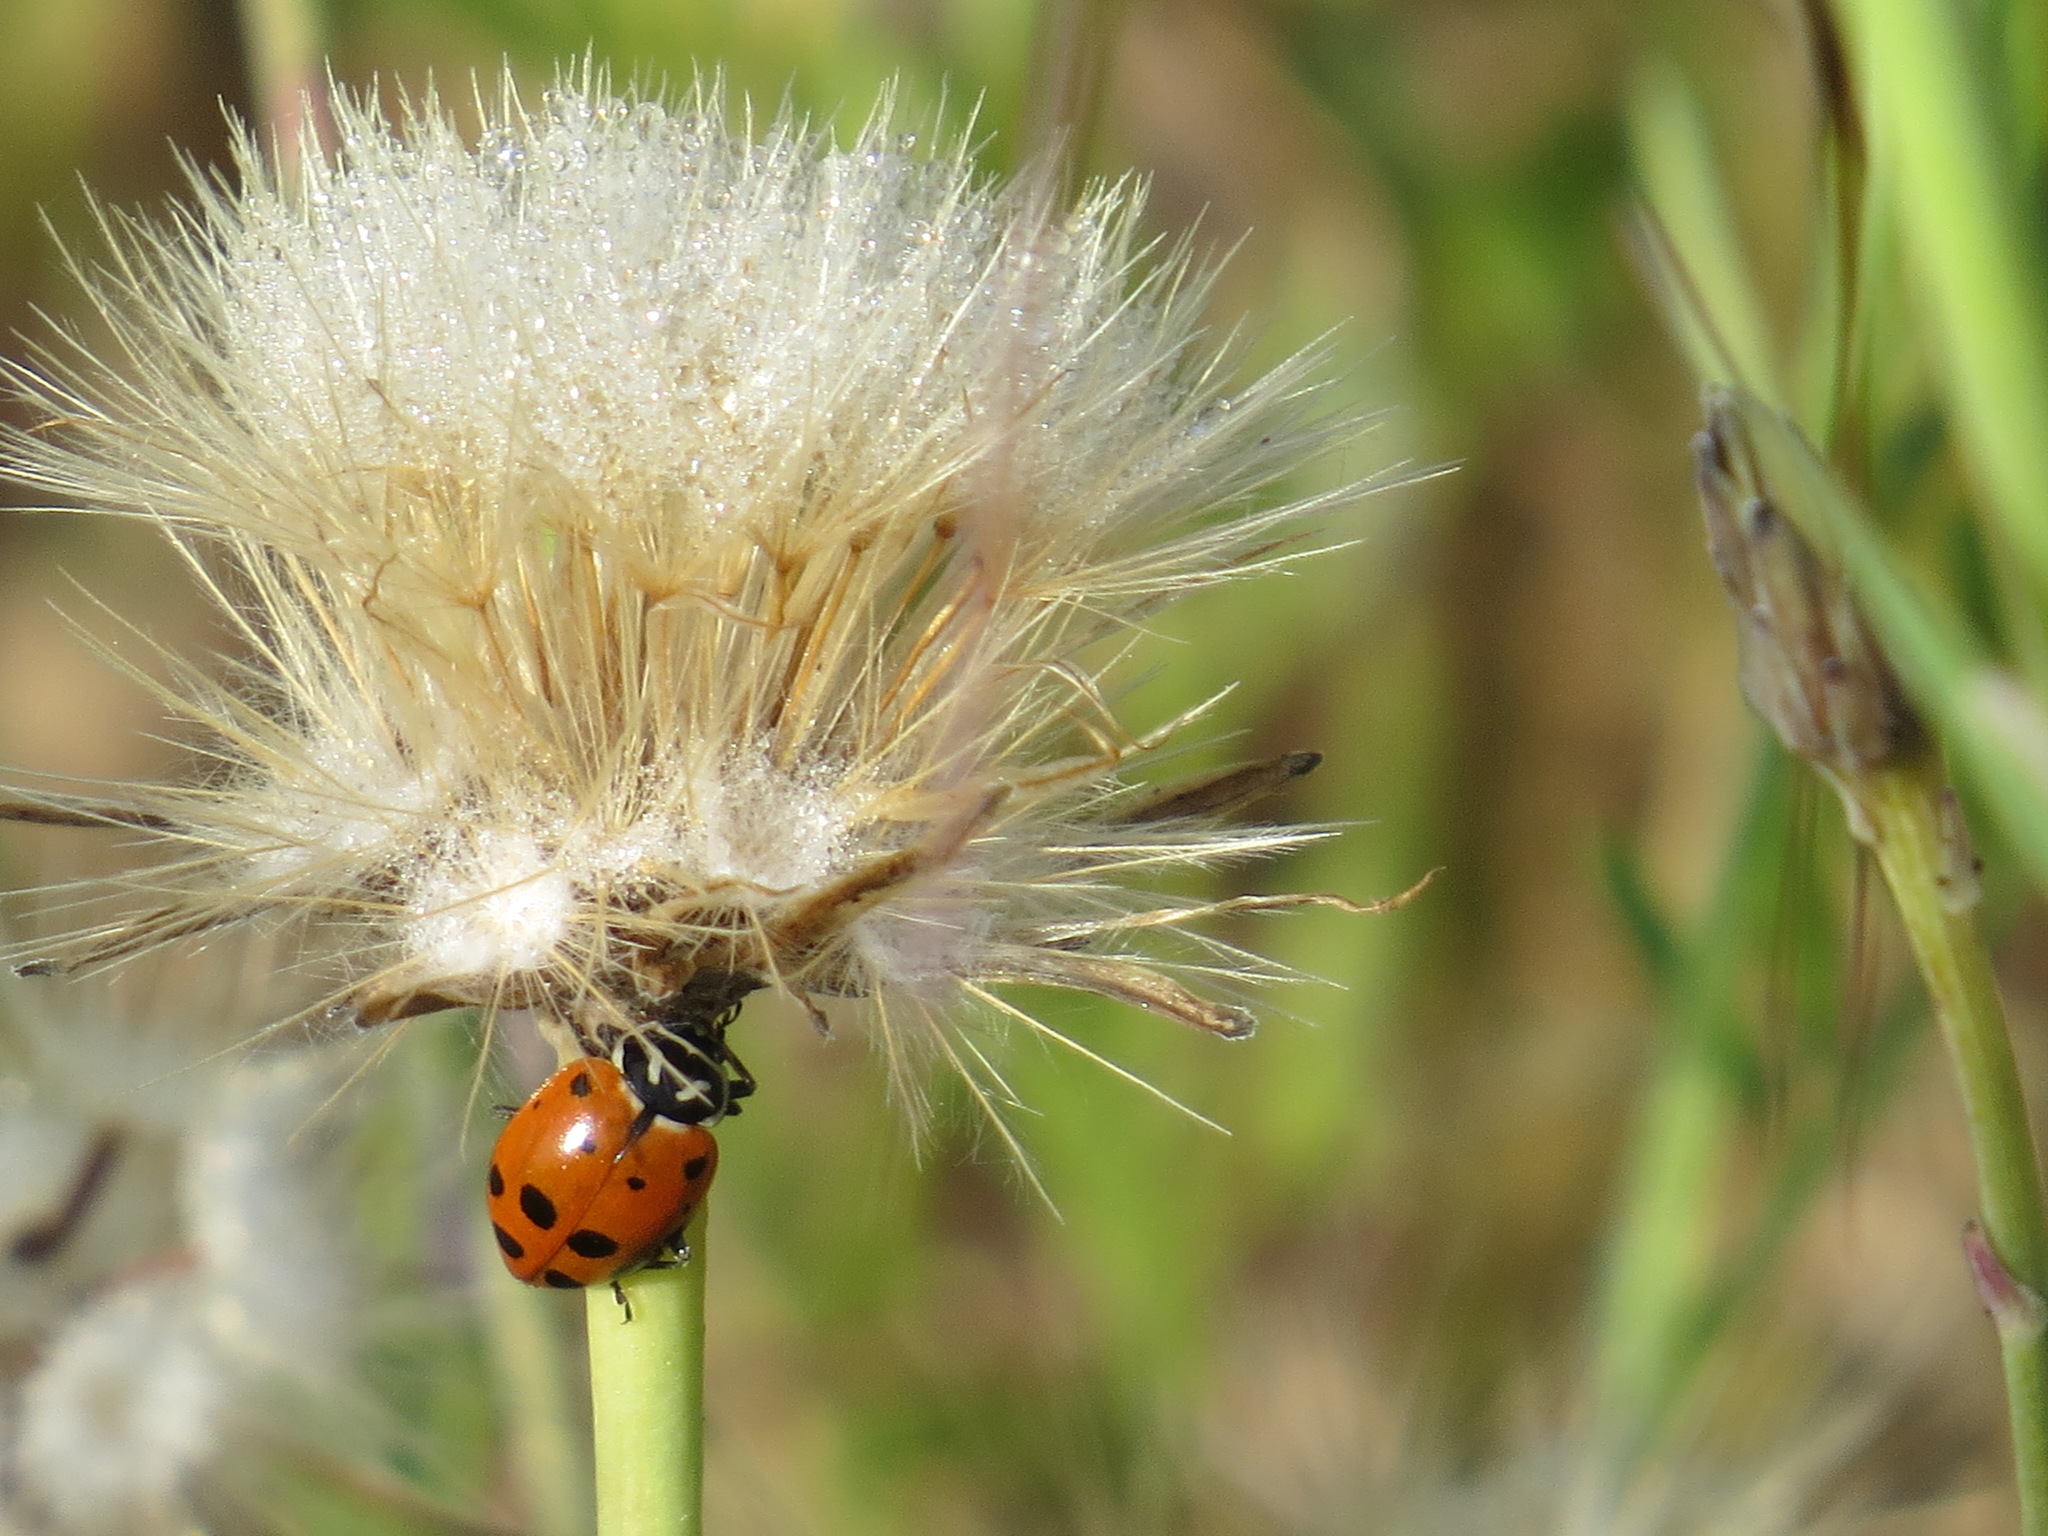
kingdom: Animalia
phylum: Arthropoda
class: Insecta
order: Coleoptera
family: Coccinellidae
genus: Hippodamia
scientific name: Hippodamia convergens
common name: Convergent lady beetle
